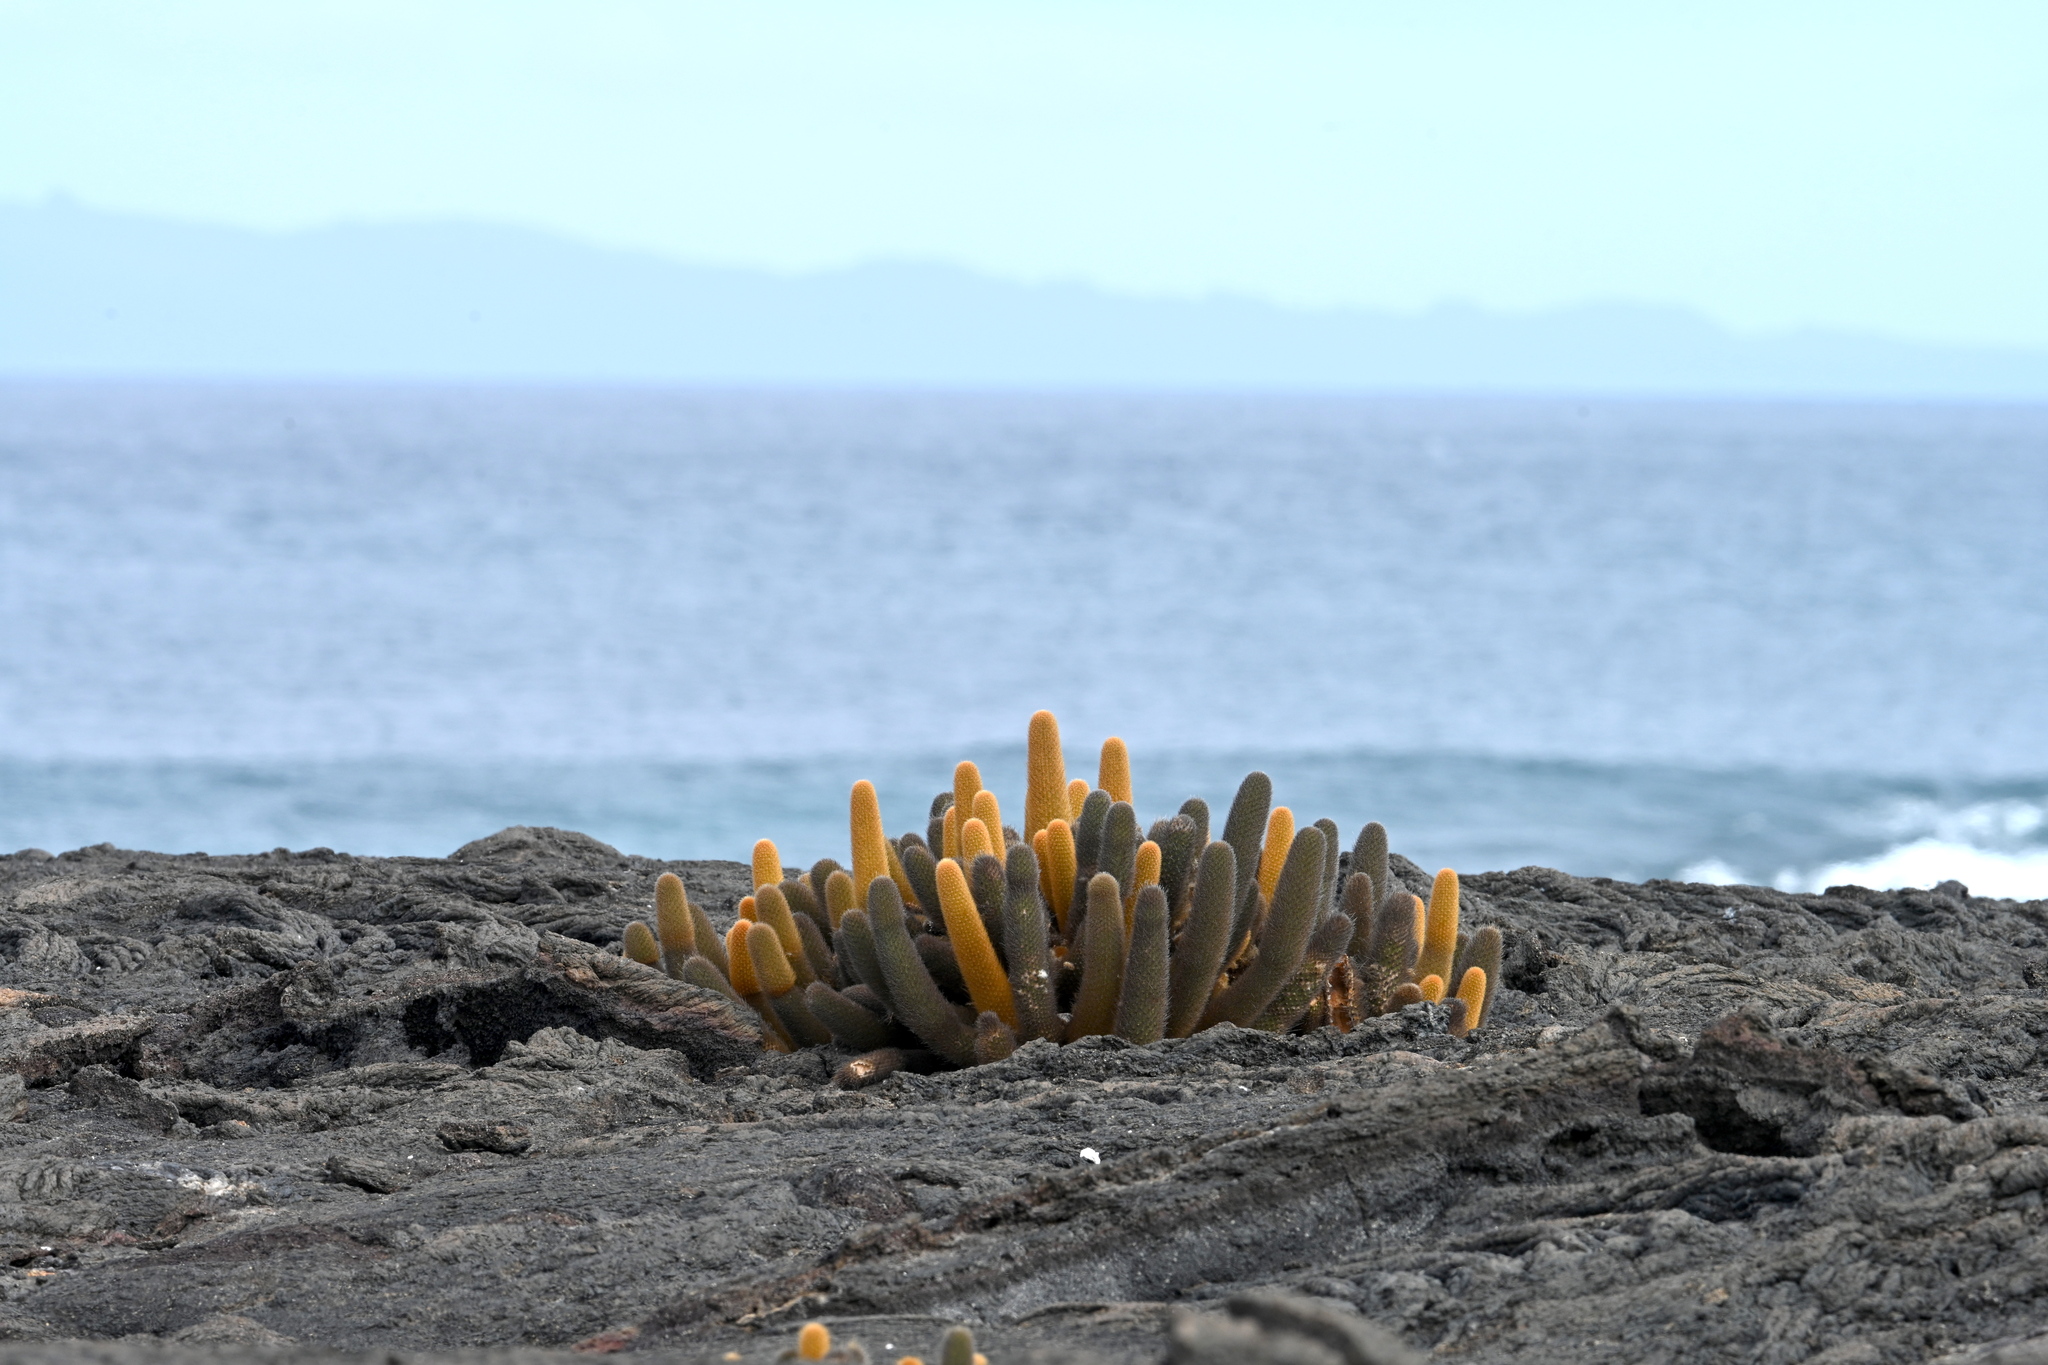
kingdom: Plantae
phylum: Tracheophyta
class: Magnoliopsida
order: Caryophyllales
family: Cactaceae
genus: Brachycereus
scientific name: Brachycereus nesioticus
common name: Lava cactus
